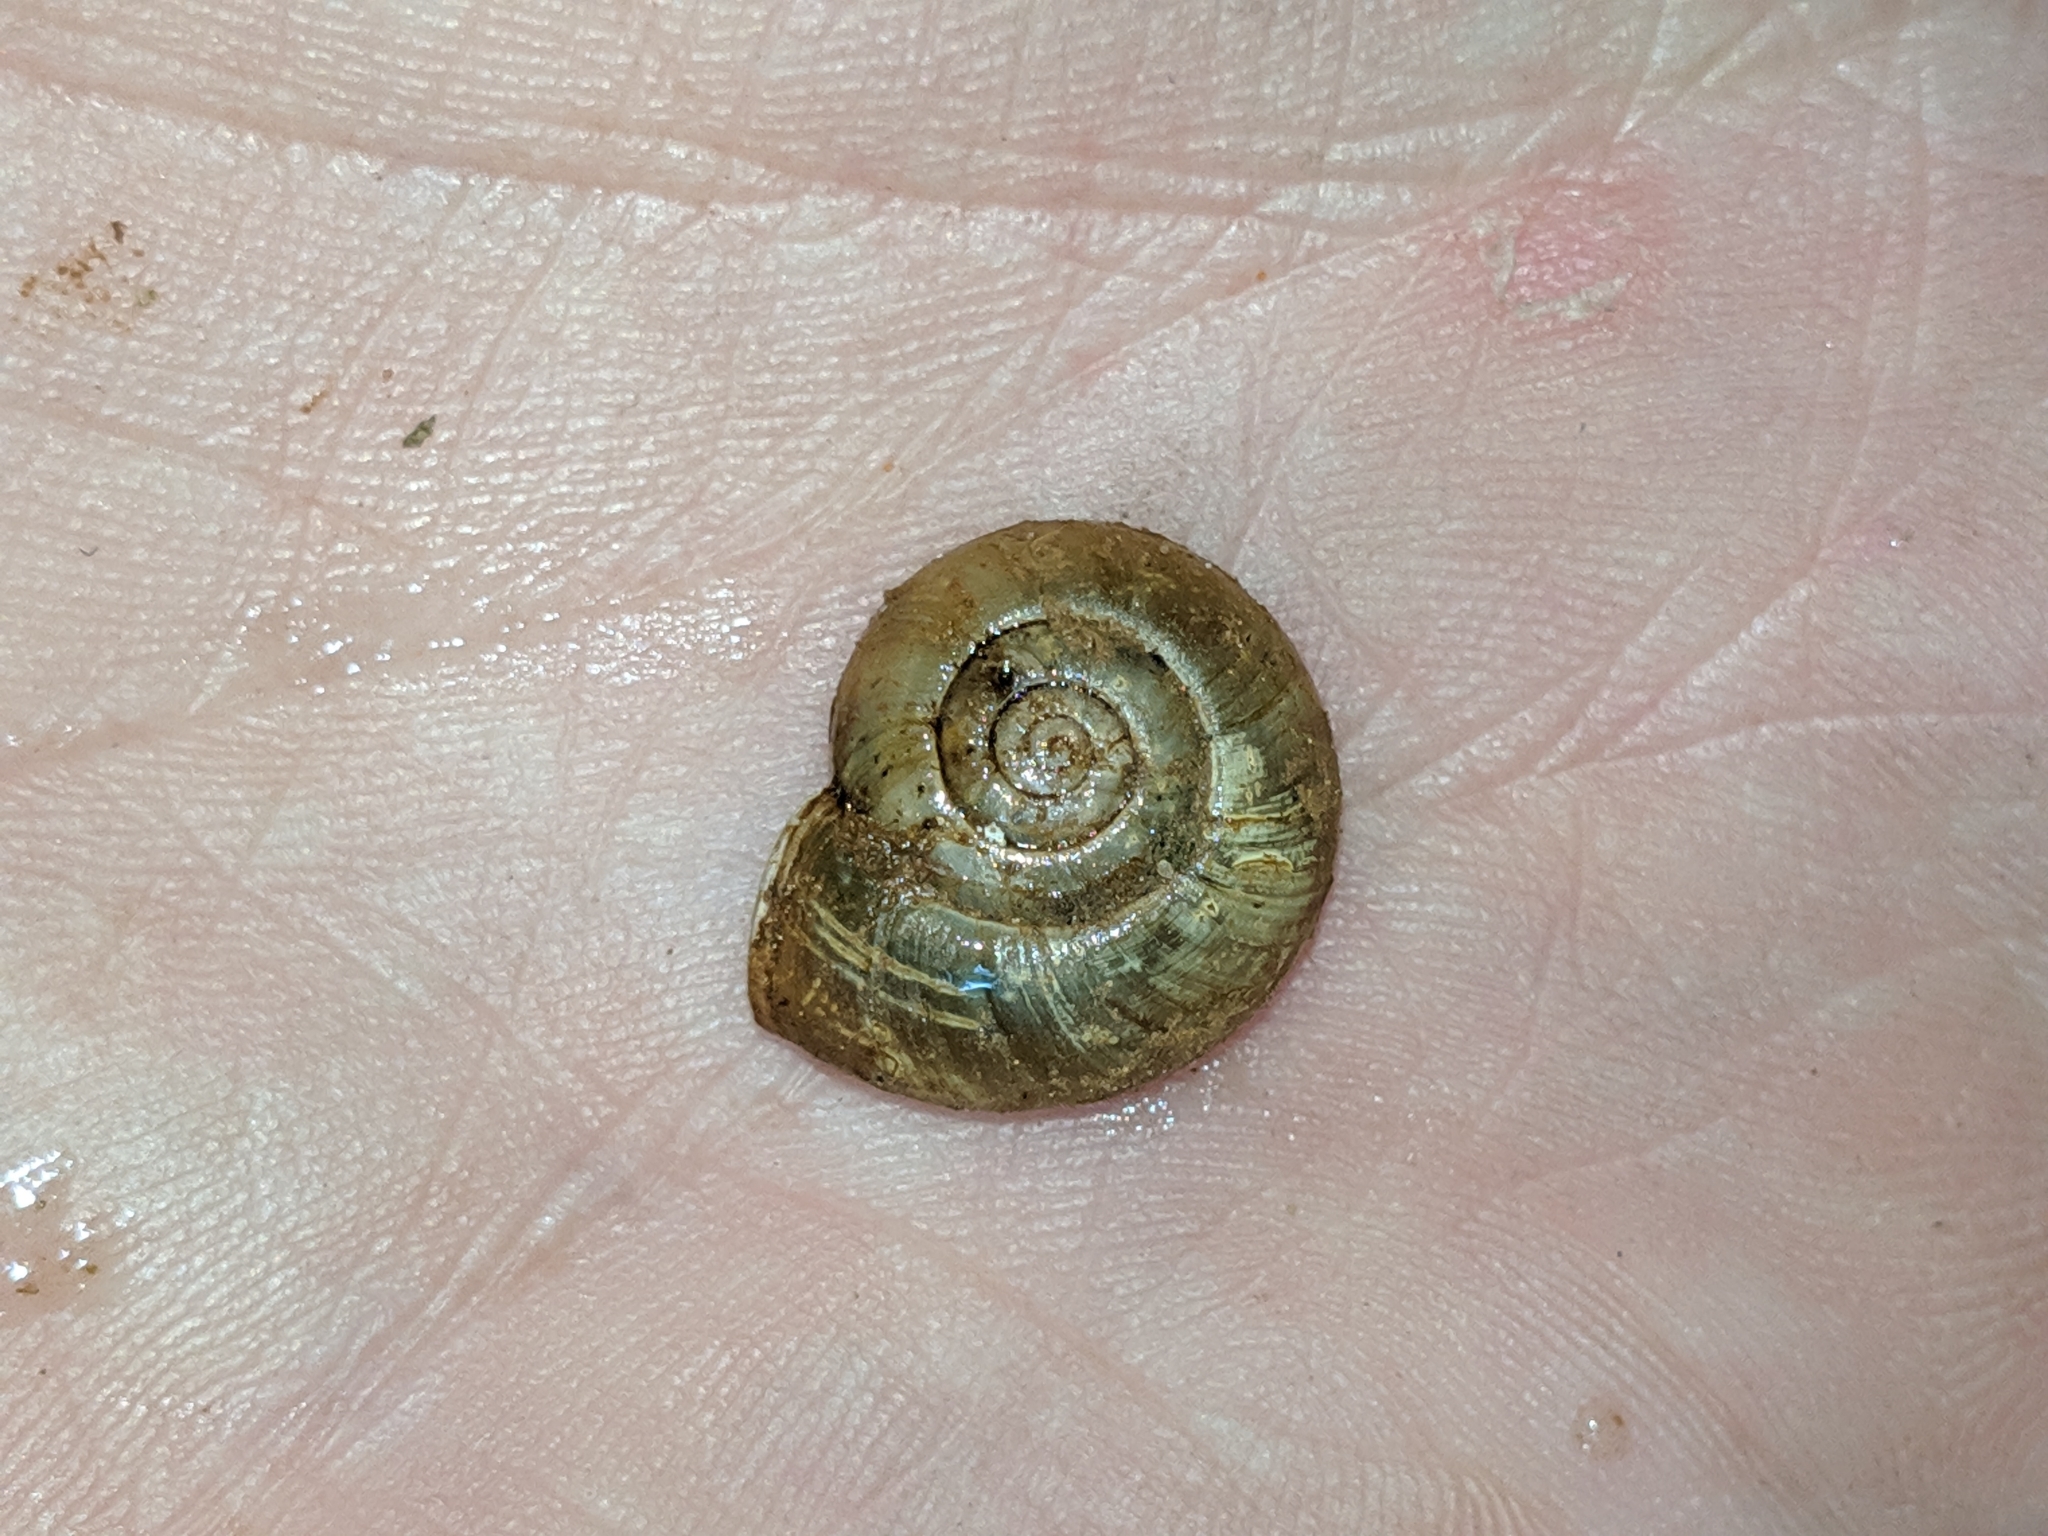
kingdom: Animalia
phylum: Mollusca
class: Gastropoda
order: Stylommatophora
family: Haplotrematidae
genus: Haplotrema
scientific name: Haplotrema concavum
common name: Gray-foot lancetooth
